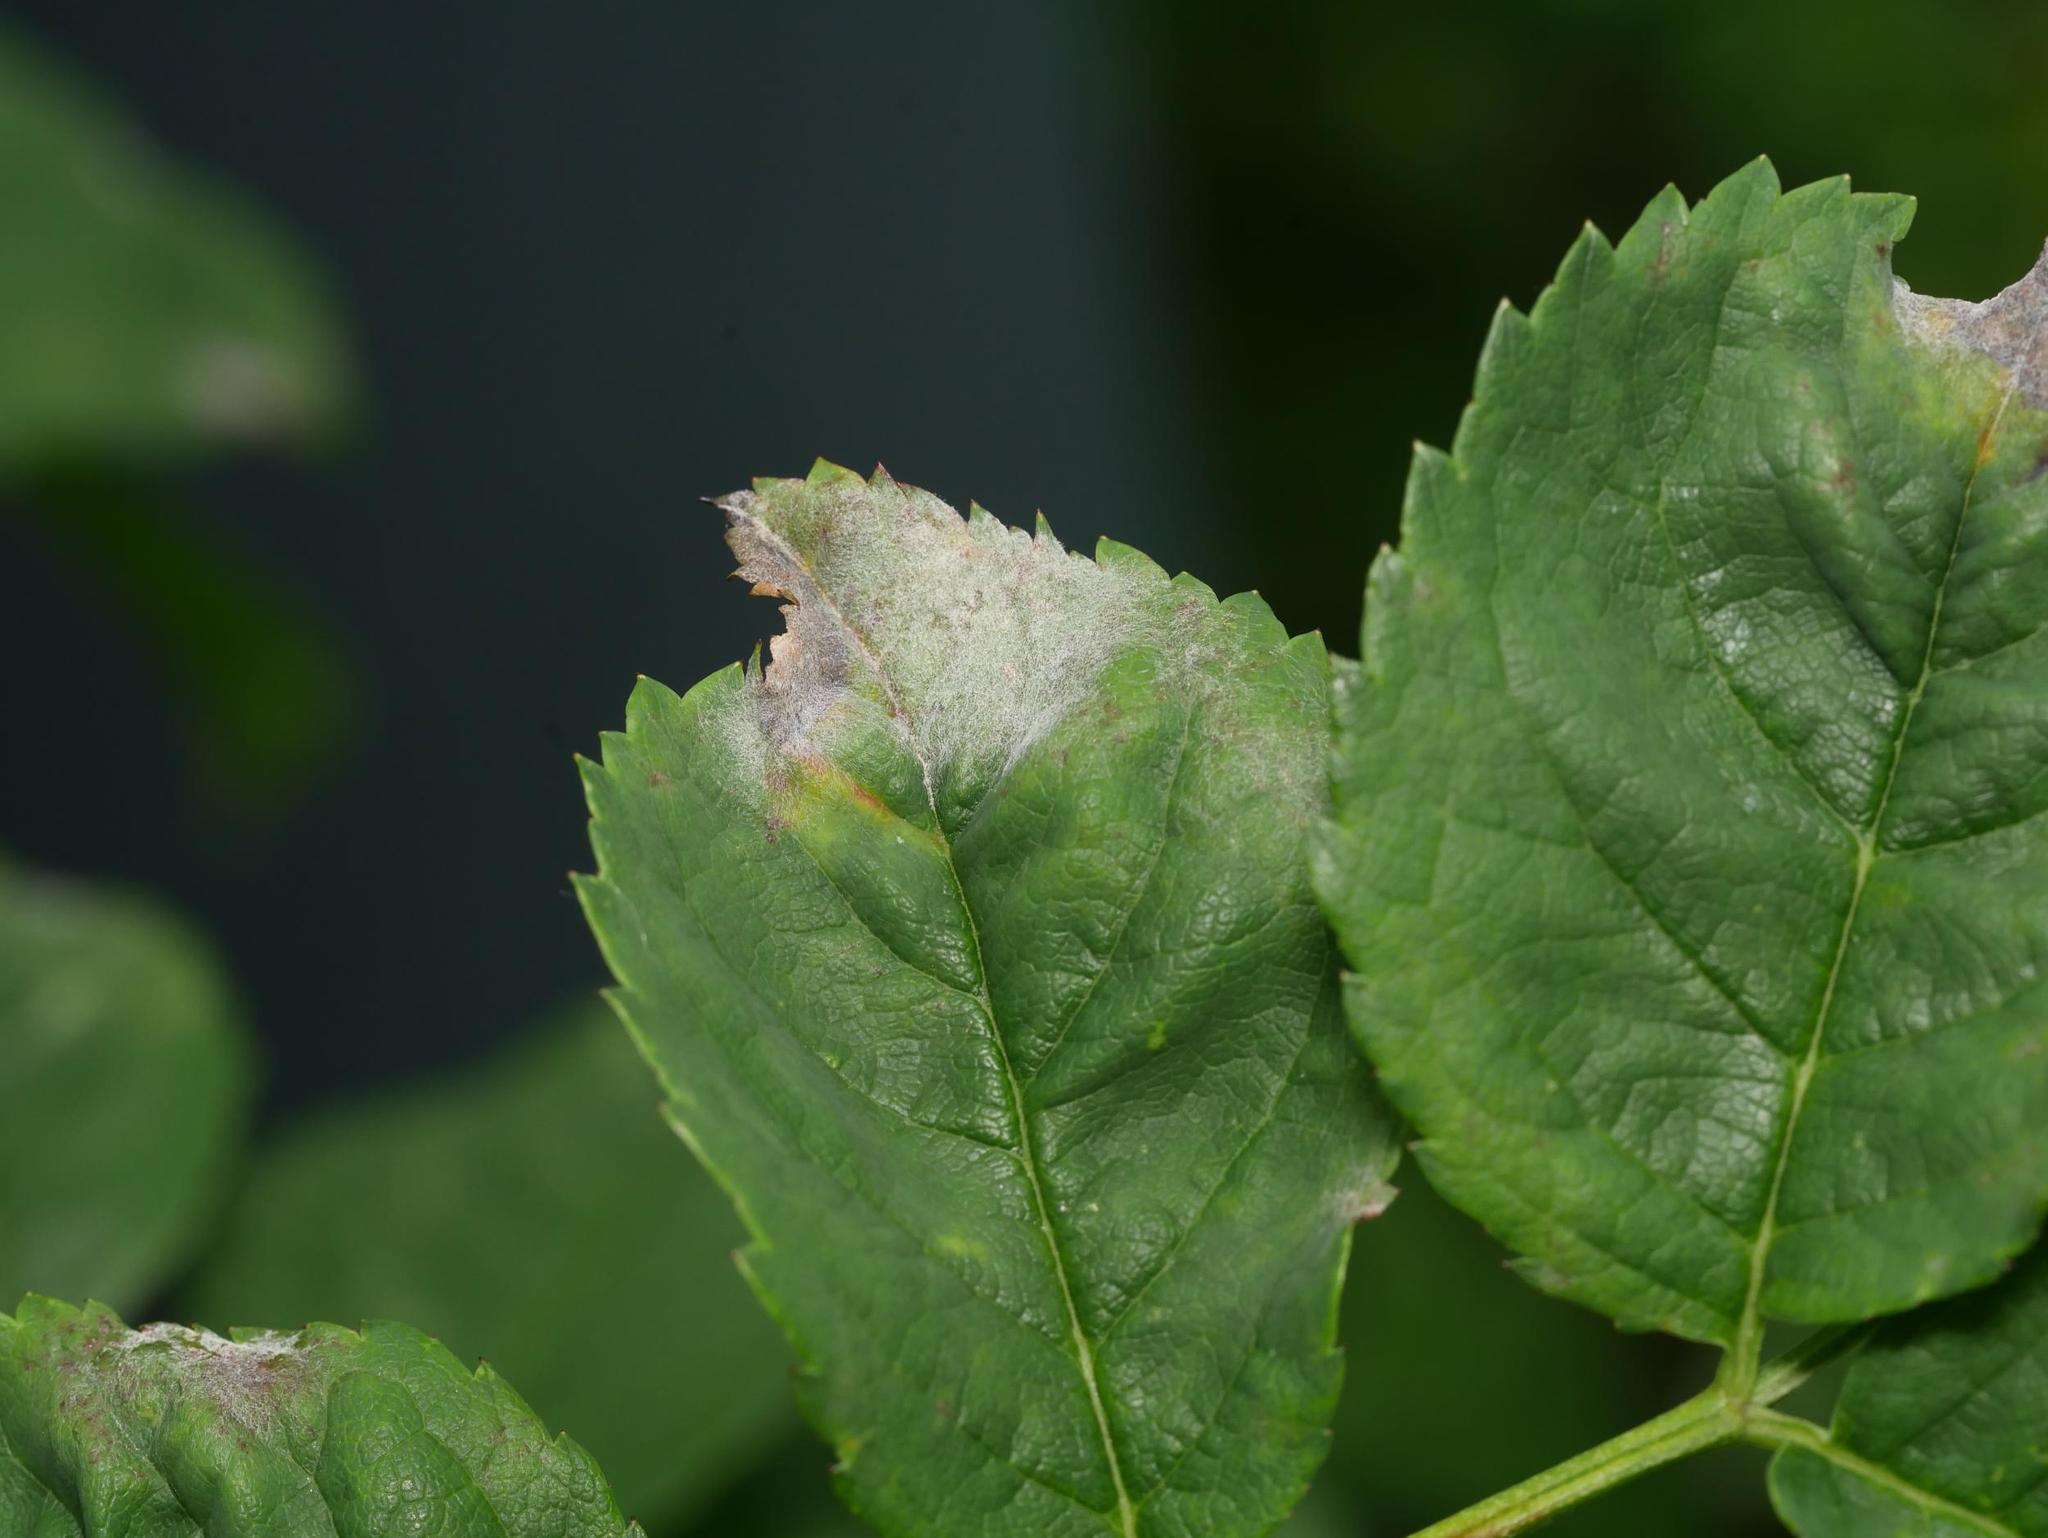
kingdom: Fungi
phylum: Ascomycota
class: Leotiomycetes
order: Helotiales
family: Erysiphaceae
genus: Podosphaera
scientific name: Podosphaera pannosa
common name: Rose mildew
